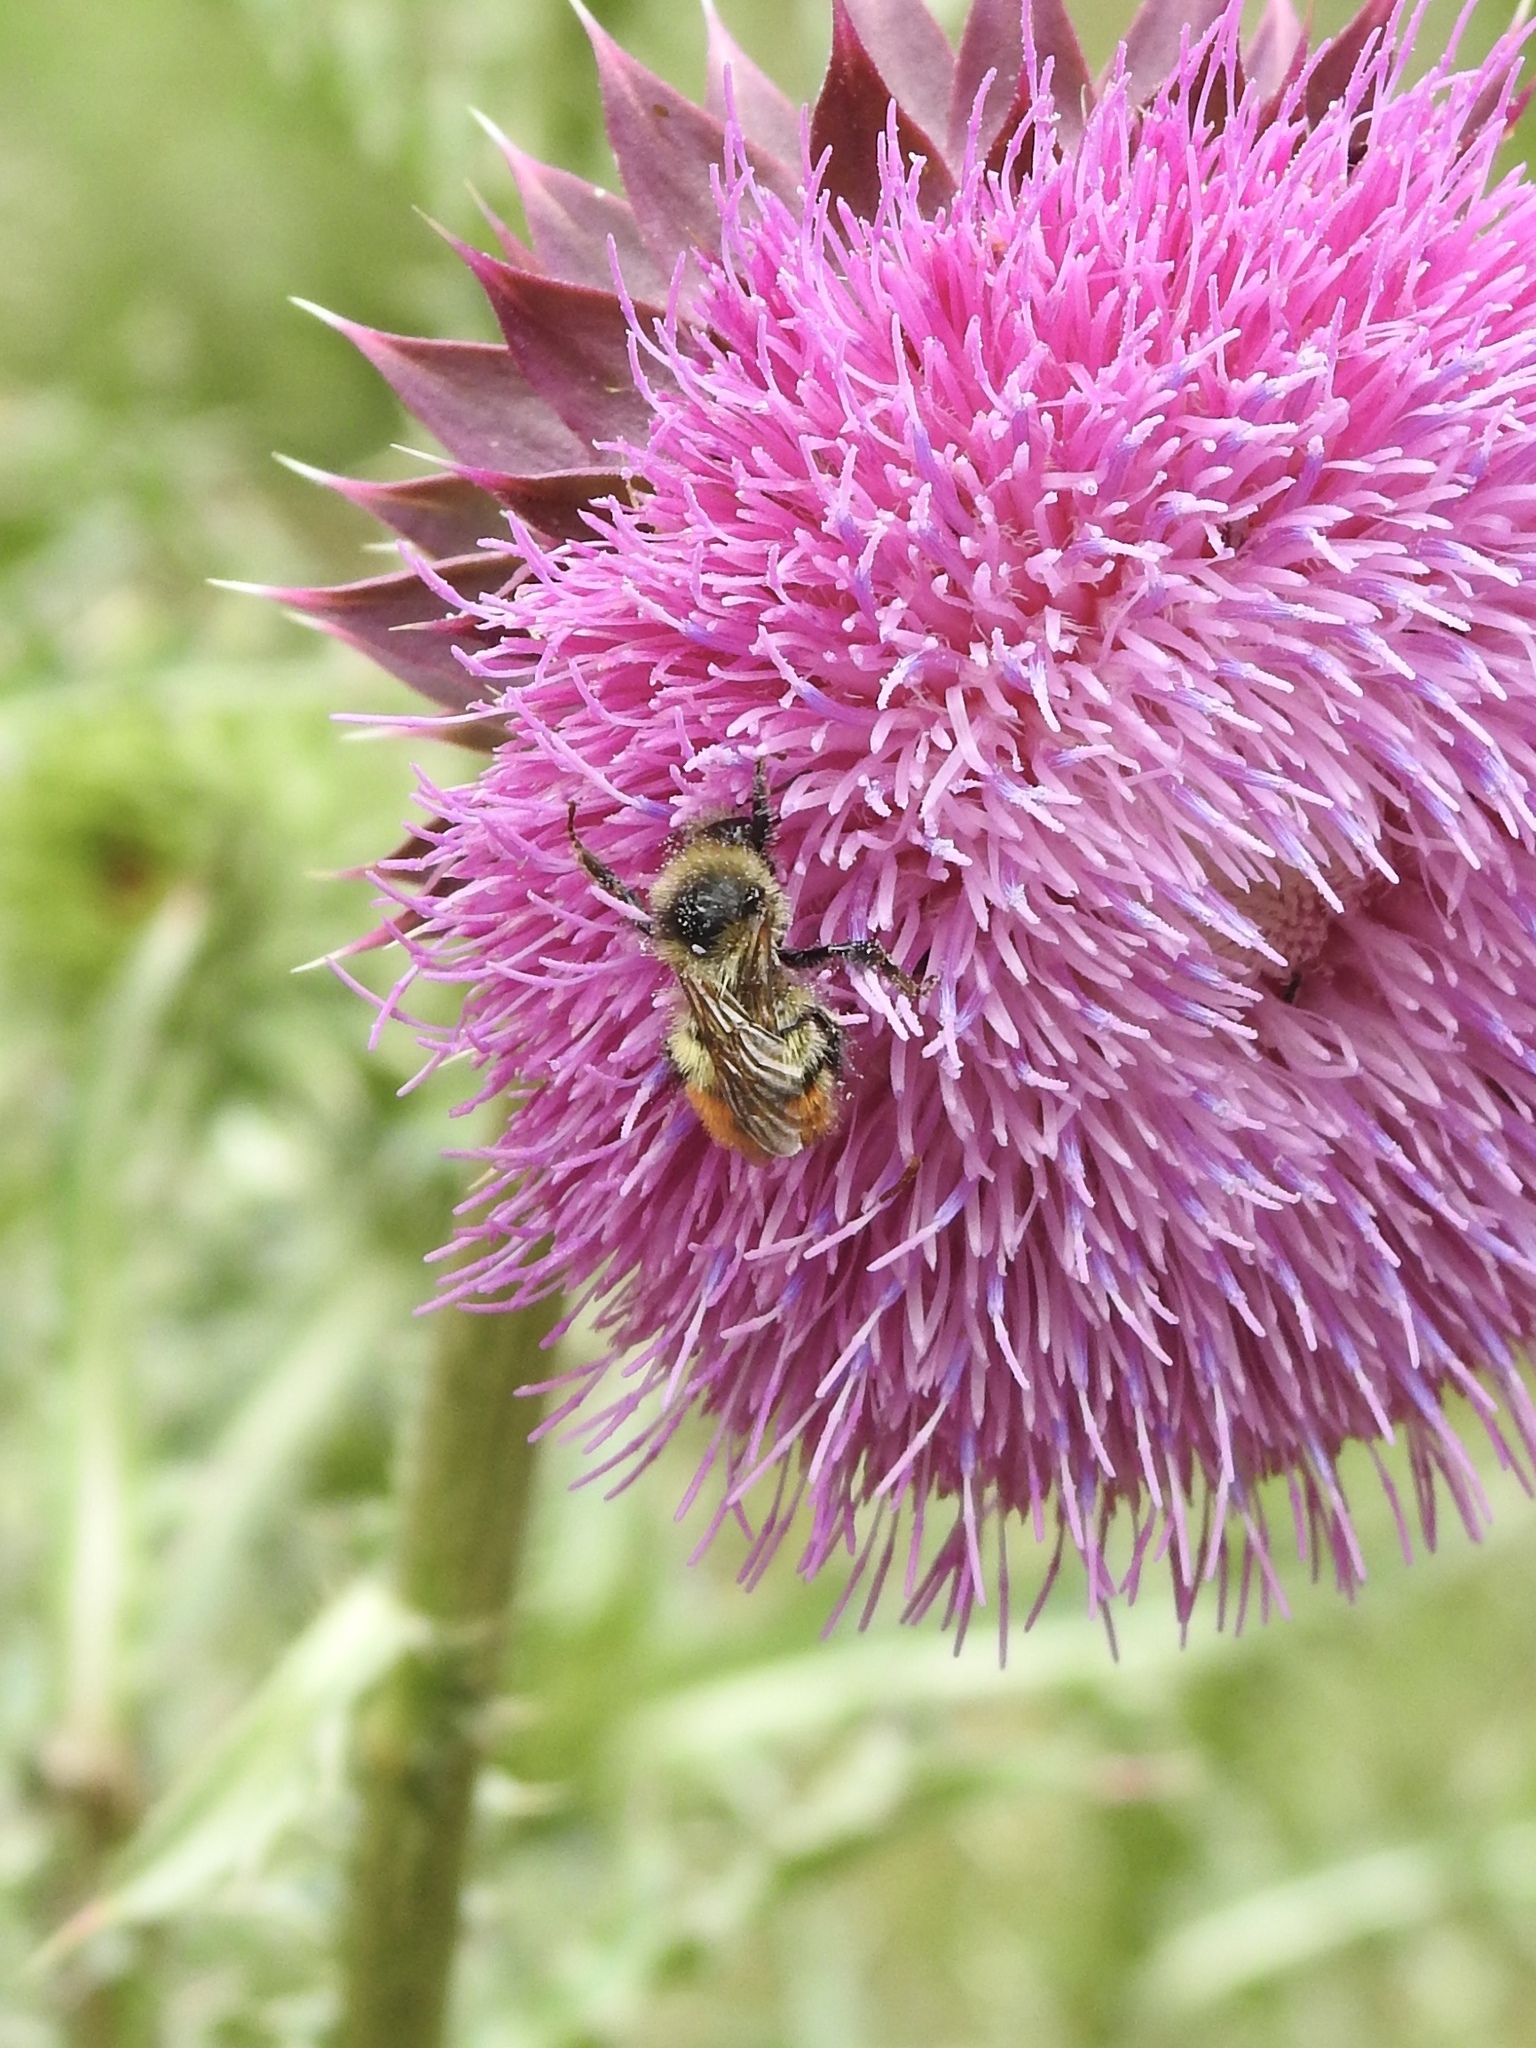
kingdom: Animalia
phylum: Arthropoda
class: Insecta
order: Hymenoptera
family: Apidae
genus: Bombus
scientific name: Bombus centralis
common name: Central bumble bee
